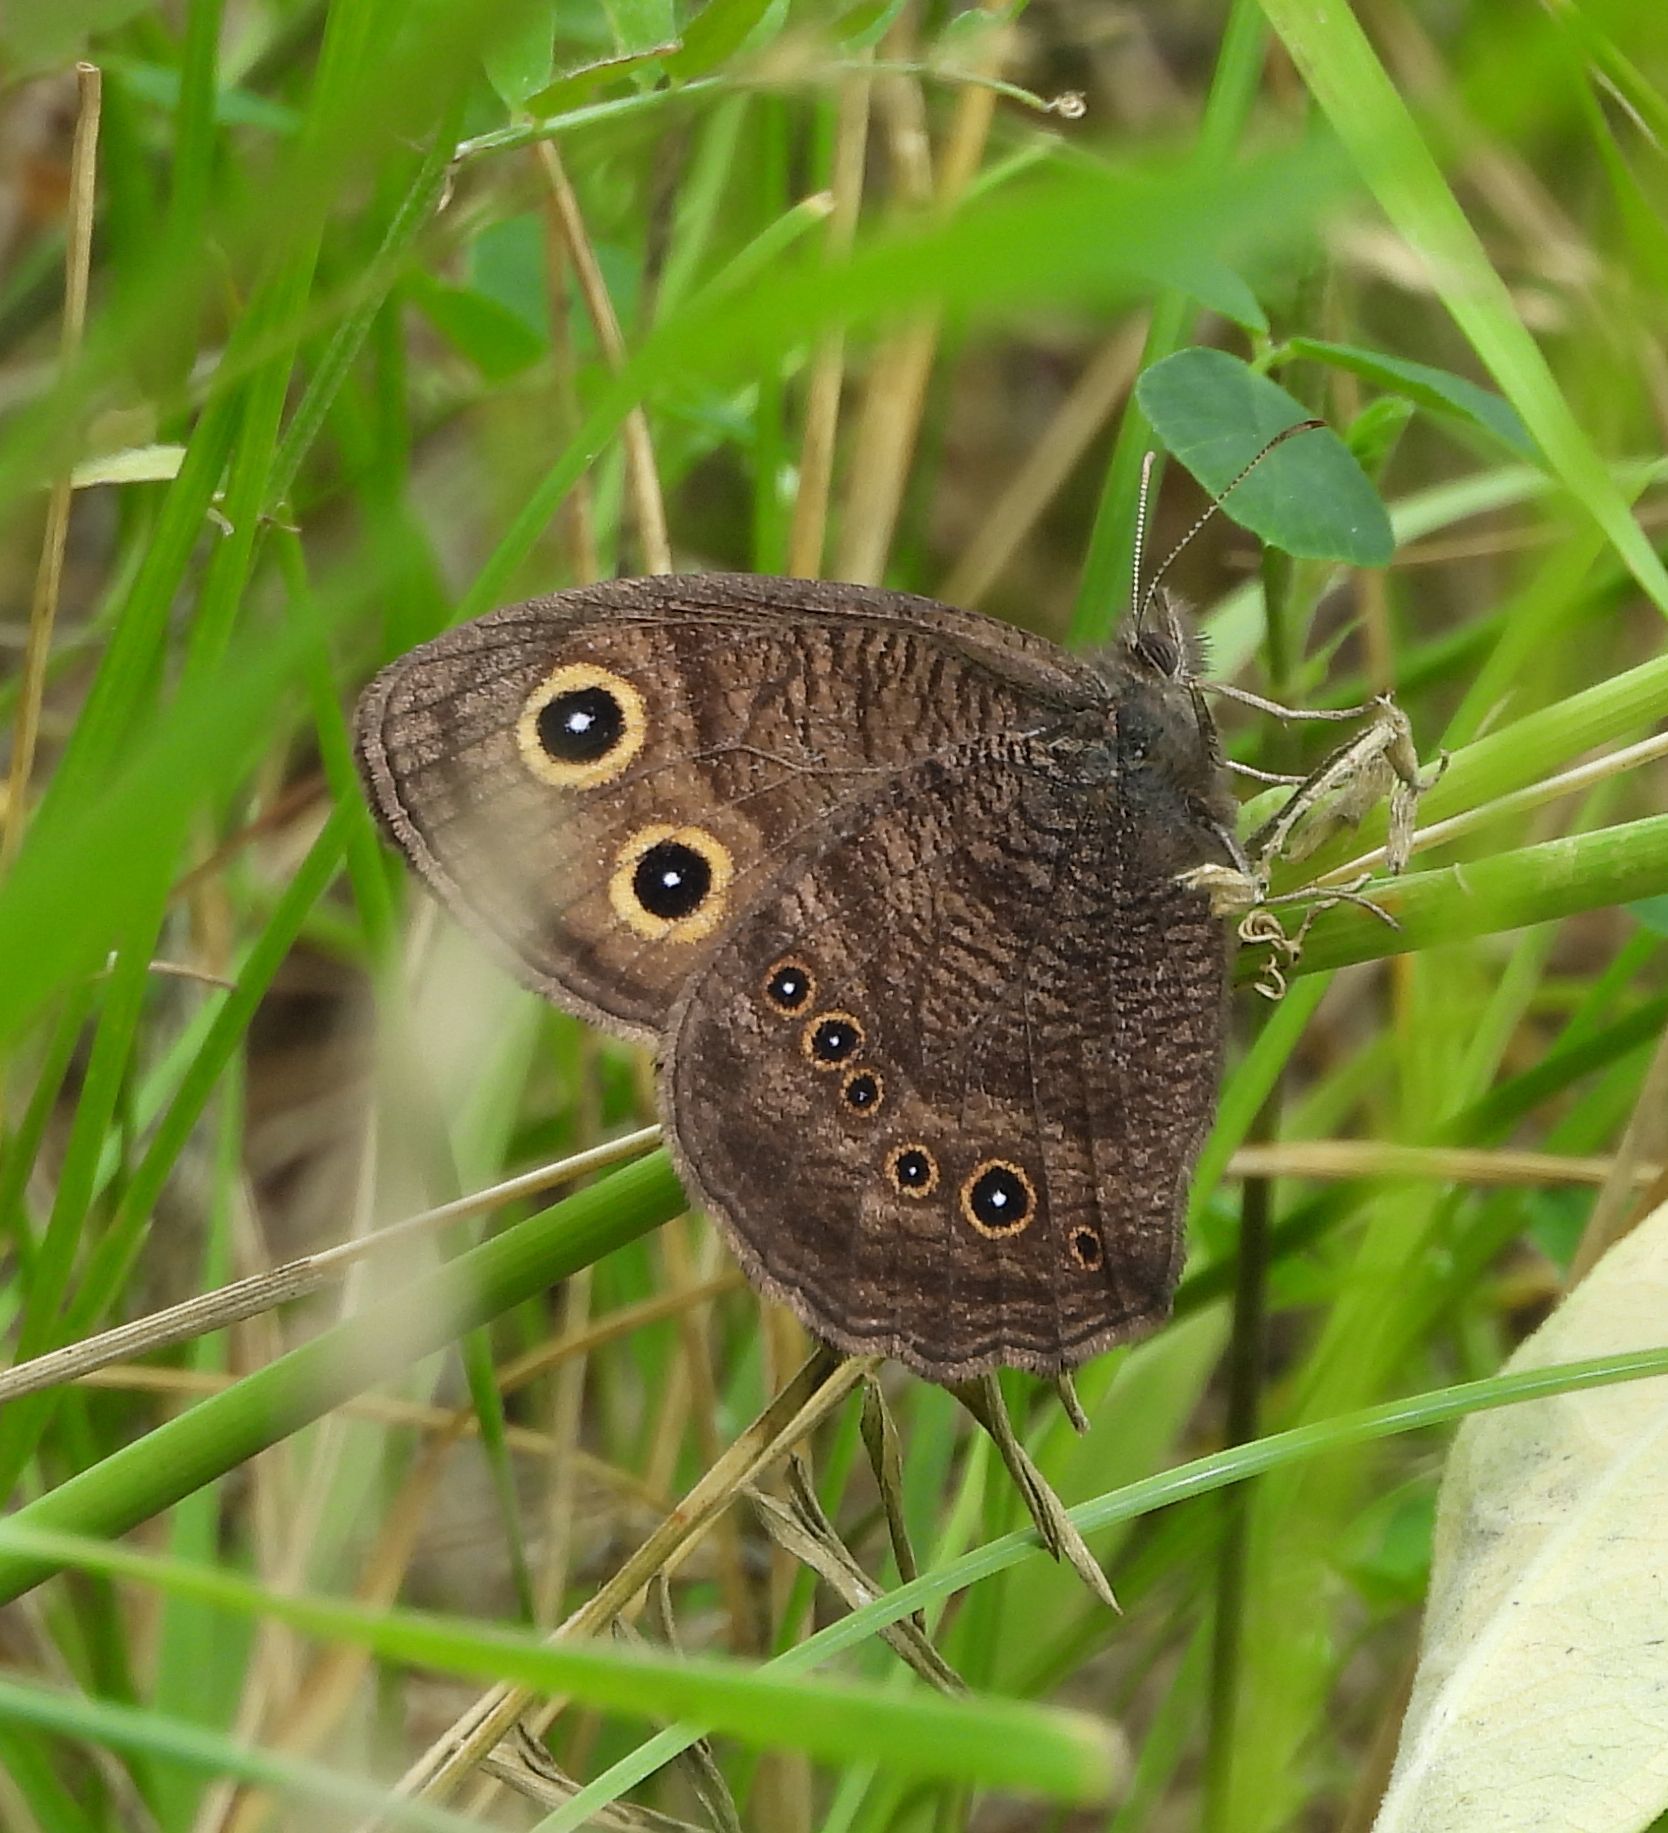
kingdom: Animalia
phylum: Arthropoda
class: Insecta
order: Lepidoptera
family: Nymphalidae
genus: Cercyonis
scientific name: Cercyonis pegala
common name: Common wood-nymph
